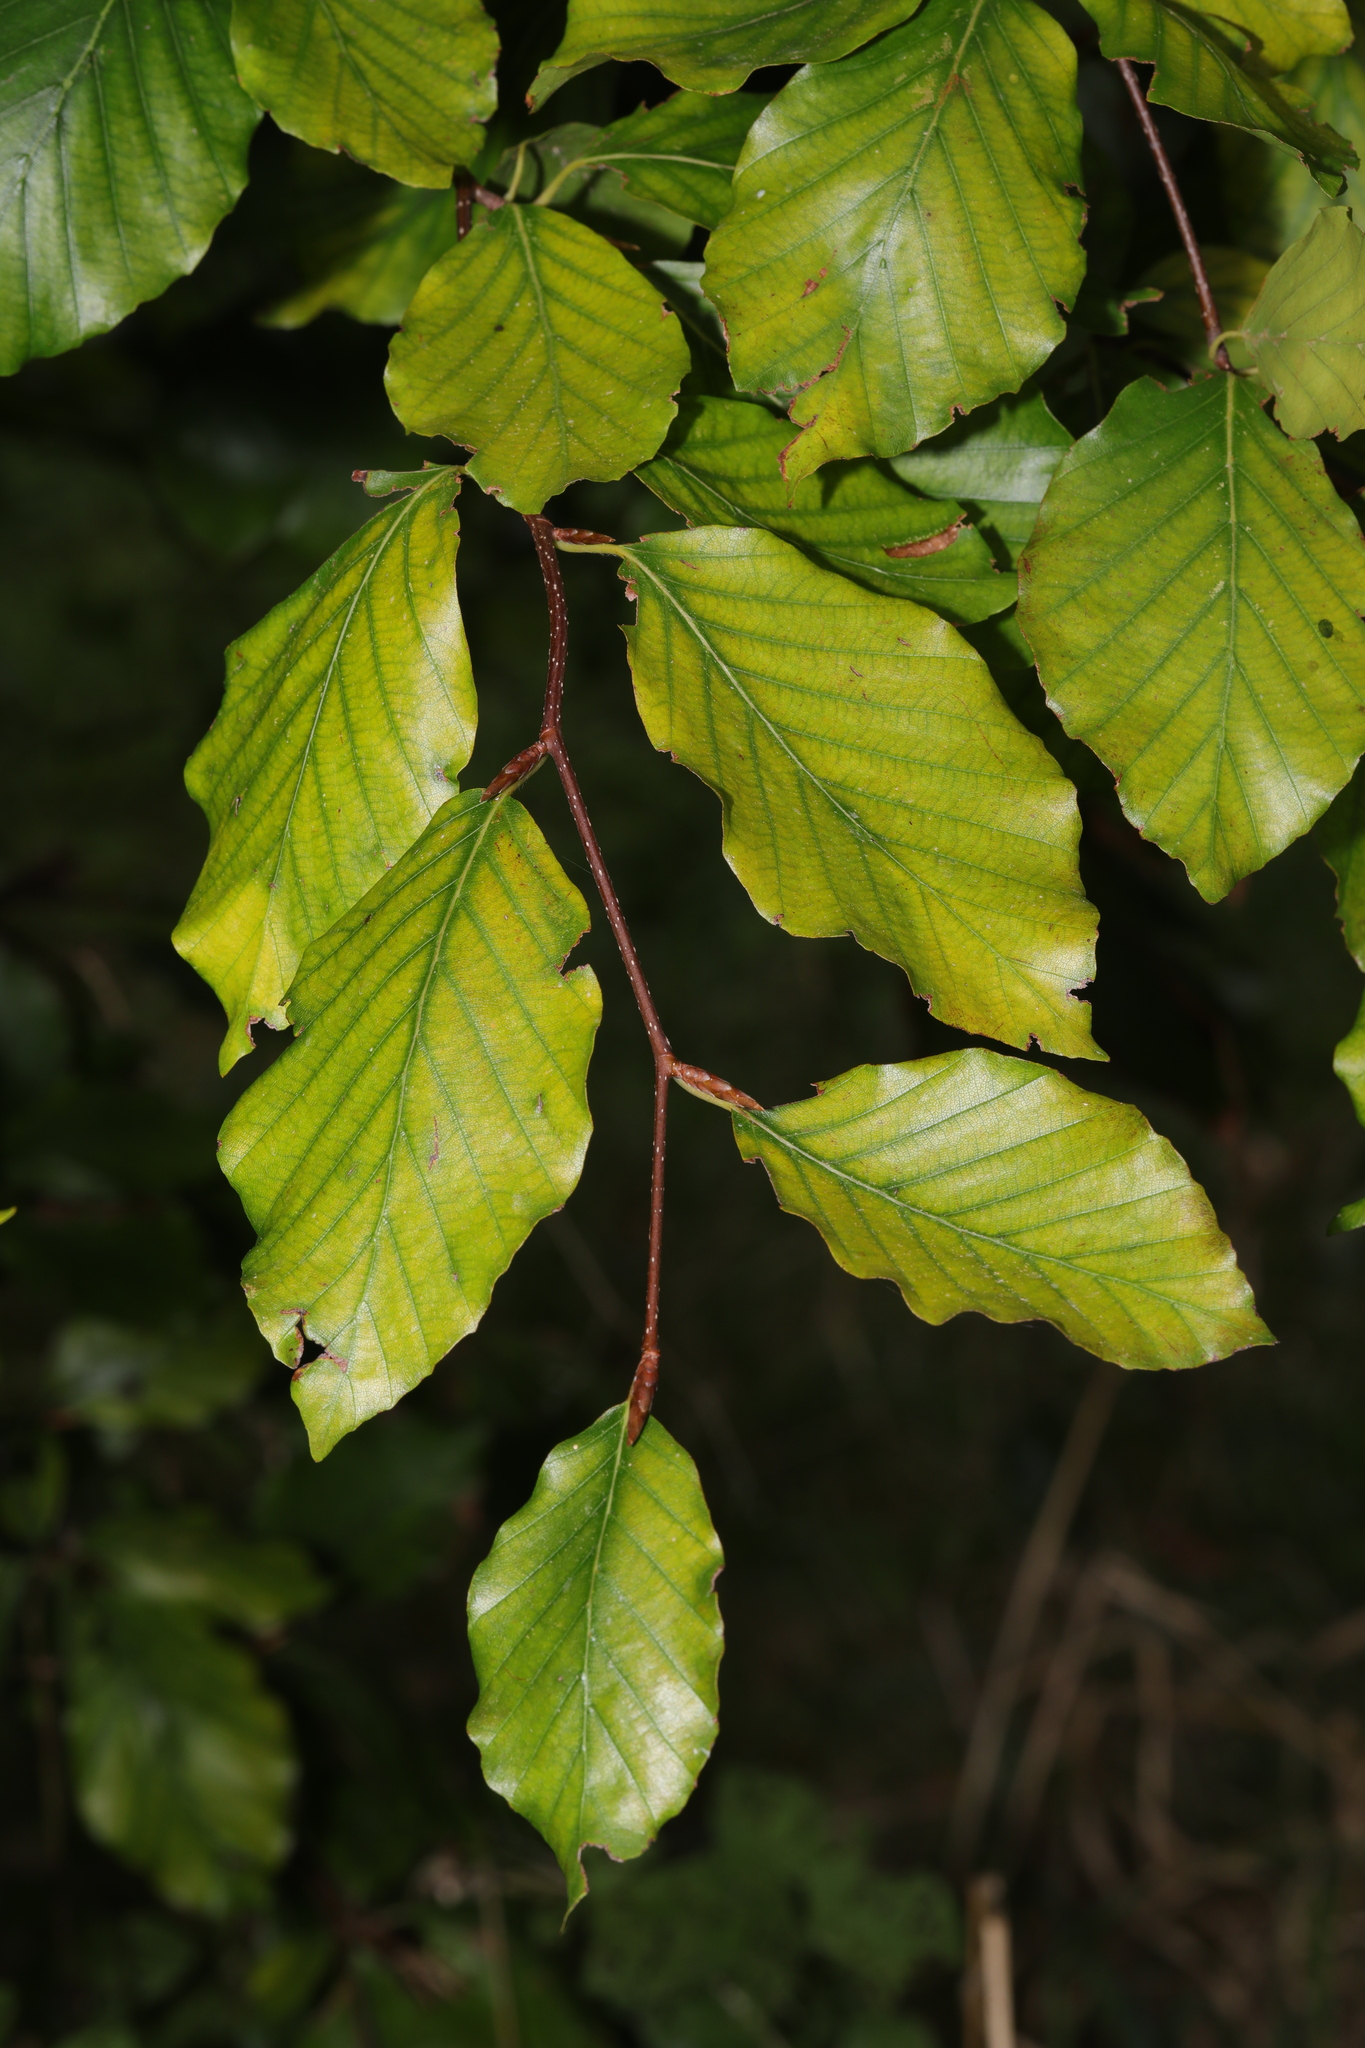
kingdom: Plantae
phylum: Tracheophyta
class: Magnoliopsida
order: Fagales
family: Fagaceae
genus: Fagus
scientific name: Fagus sylvatica
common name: Beech
